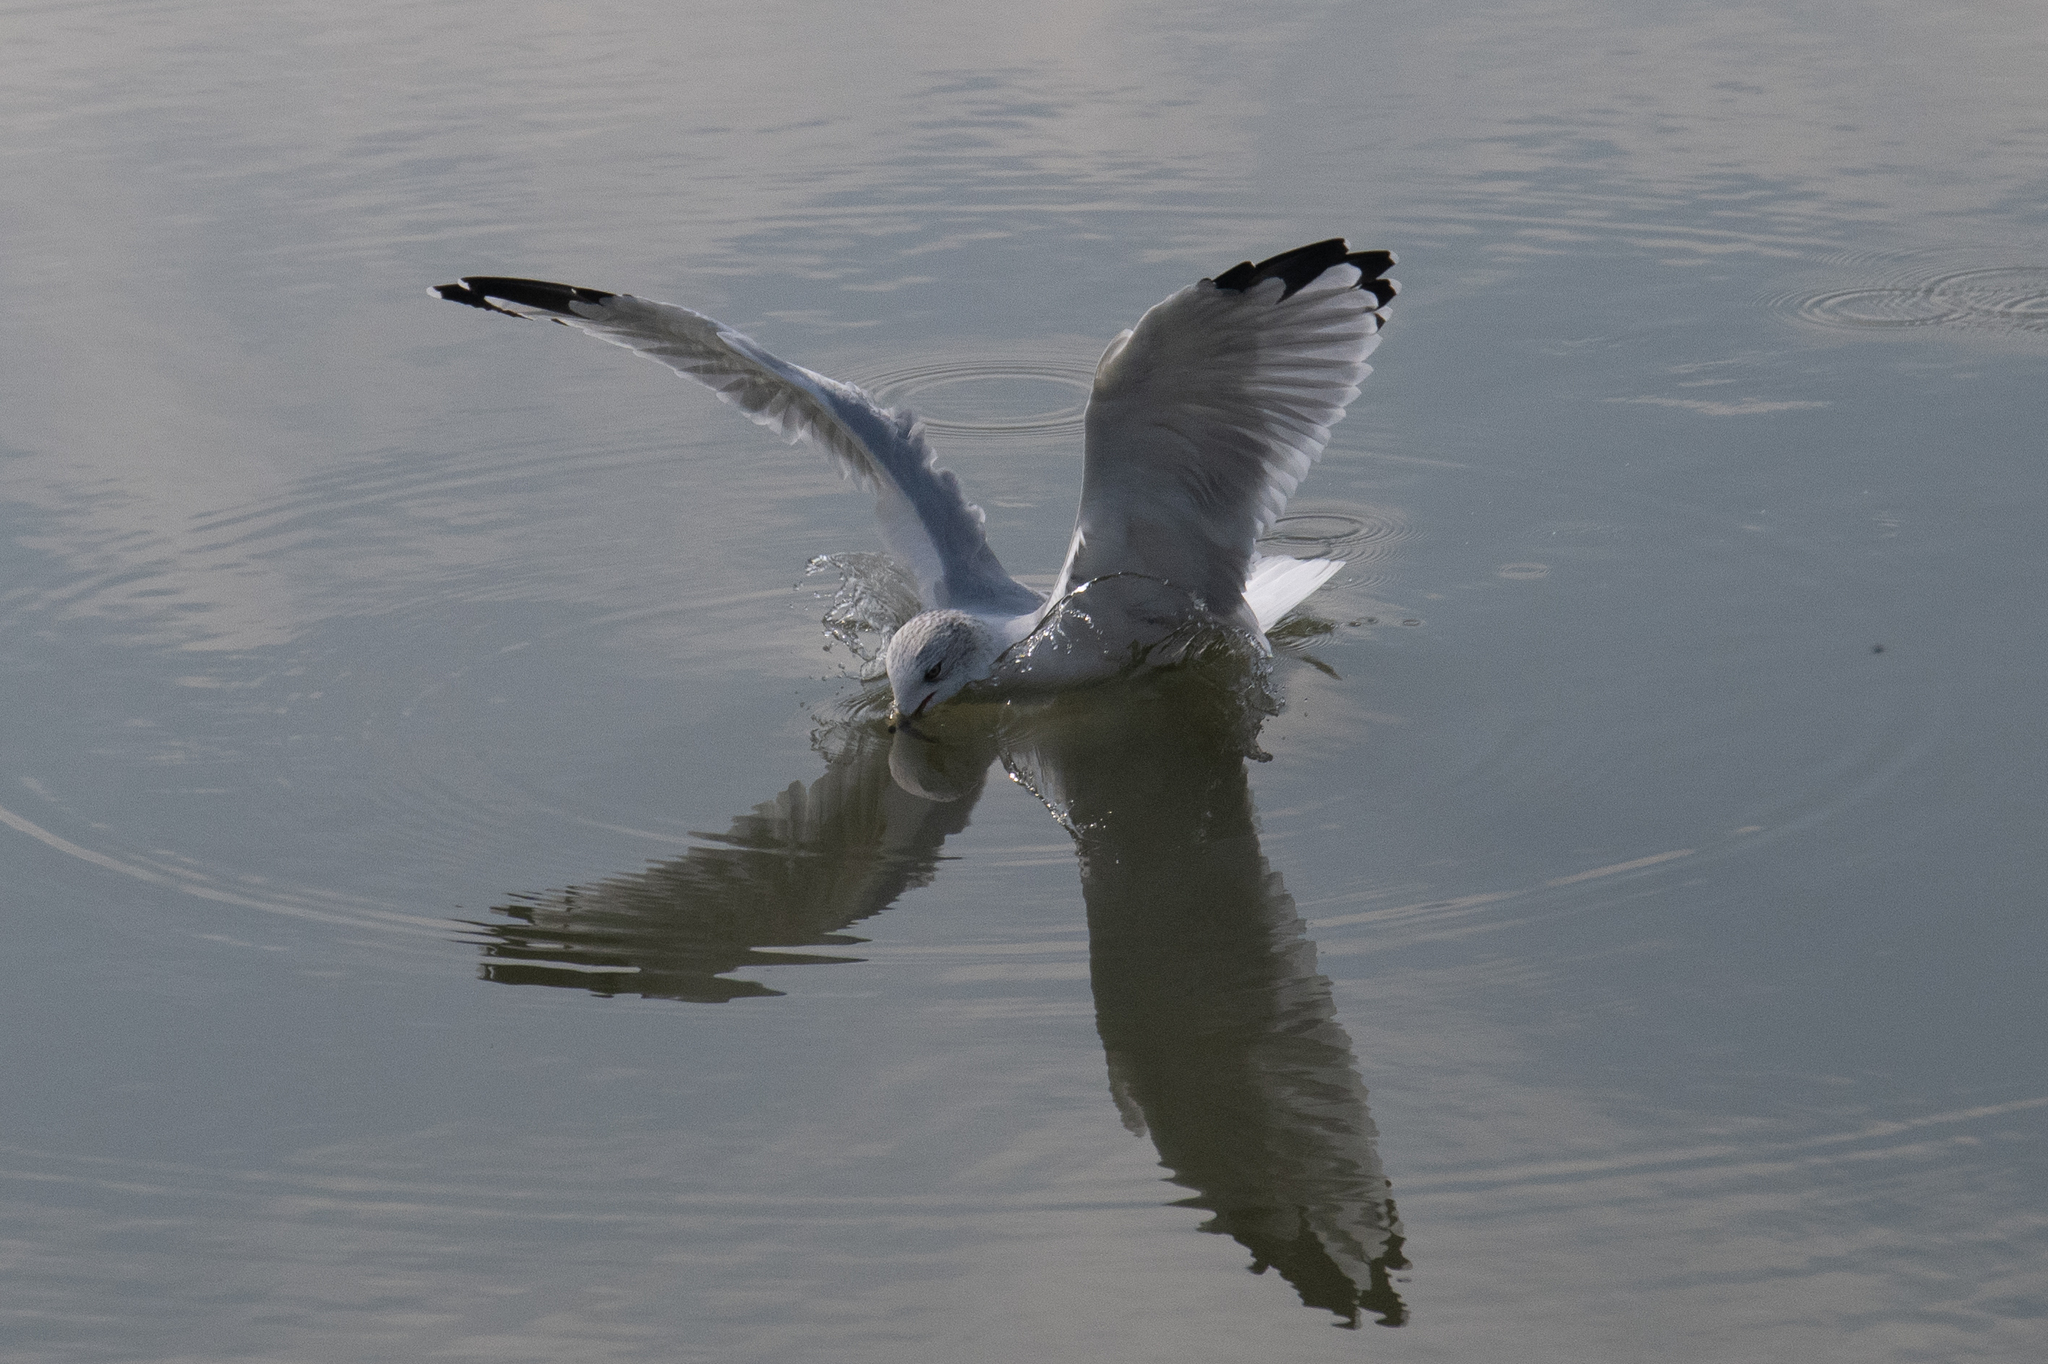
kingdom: Animalia
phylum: Chordata
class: Aves
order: Charadriiformes
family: Laridae
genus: Larus
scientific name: Larus delawarensis
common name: Ring-billed gull
